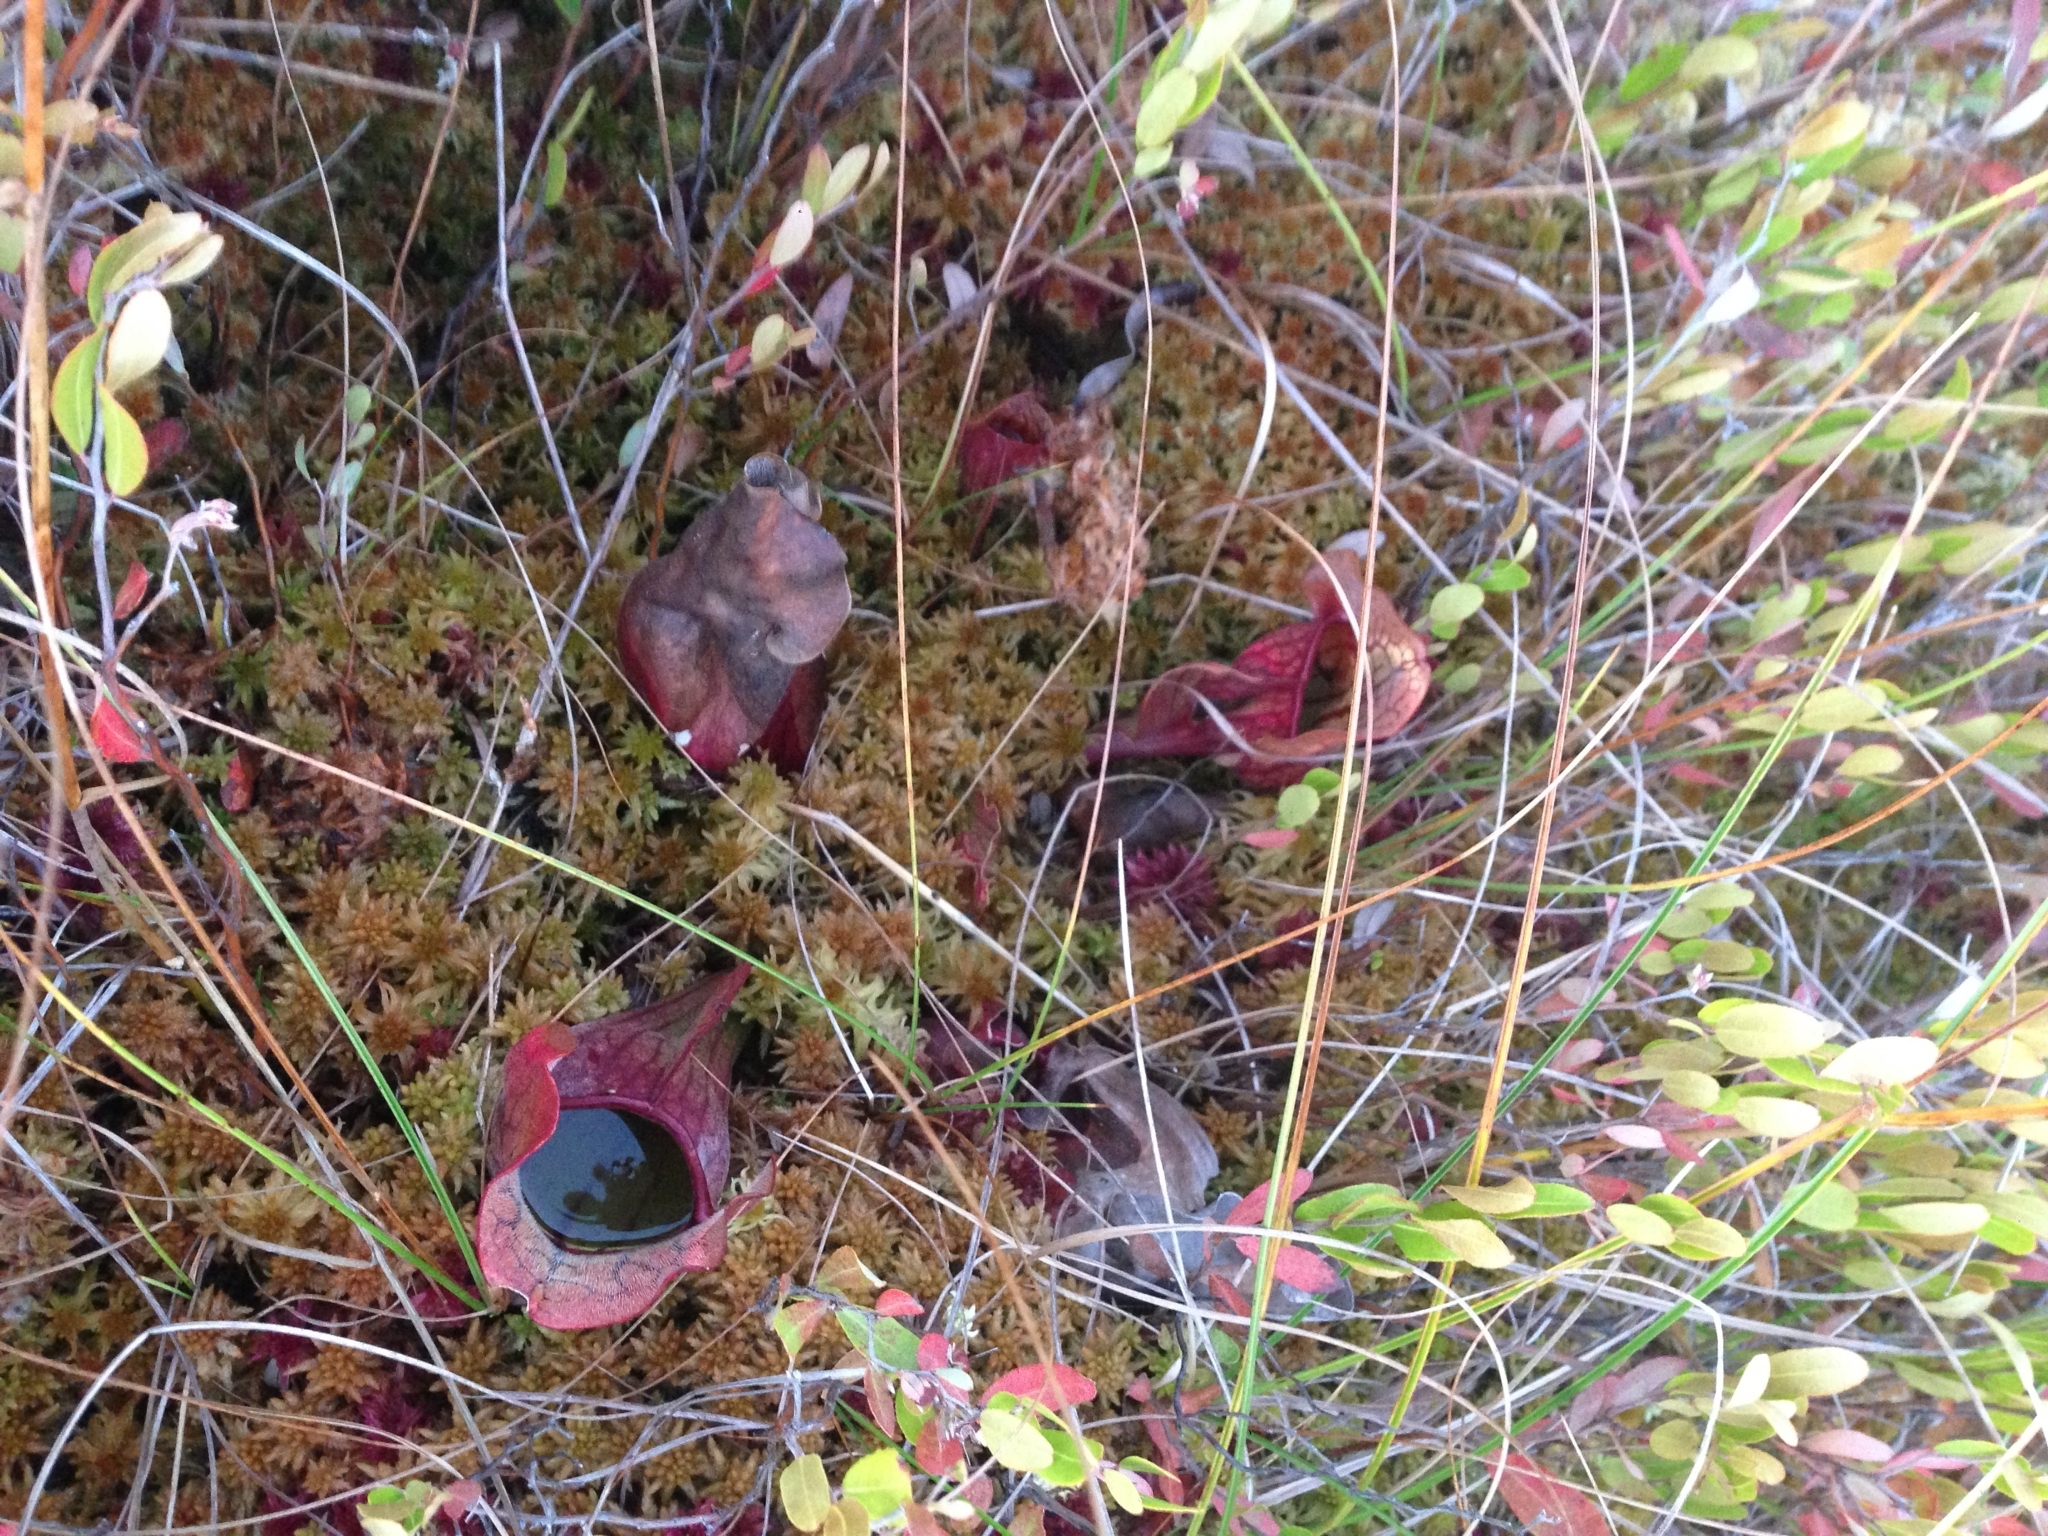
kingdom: Plantae
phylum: Tracheophyta
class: Magnoliopsida
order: Ericales
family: Sarraceniaceae
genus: Sarracenia
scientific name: Sarracenia purpurea
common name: Pitcherplant
